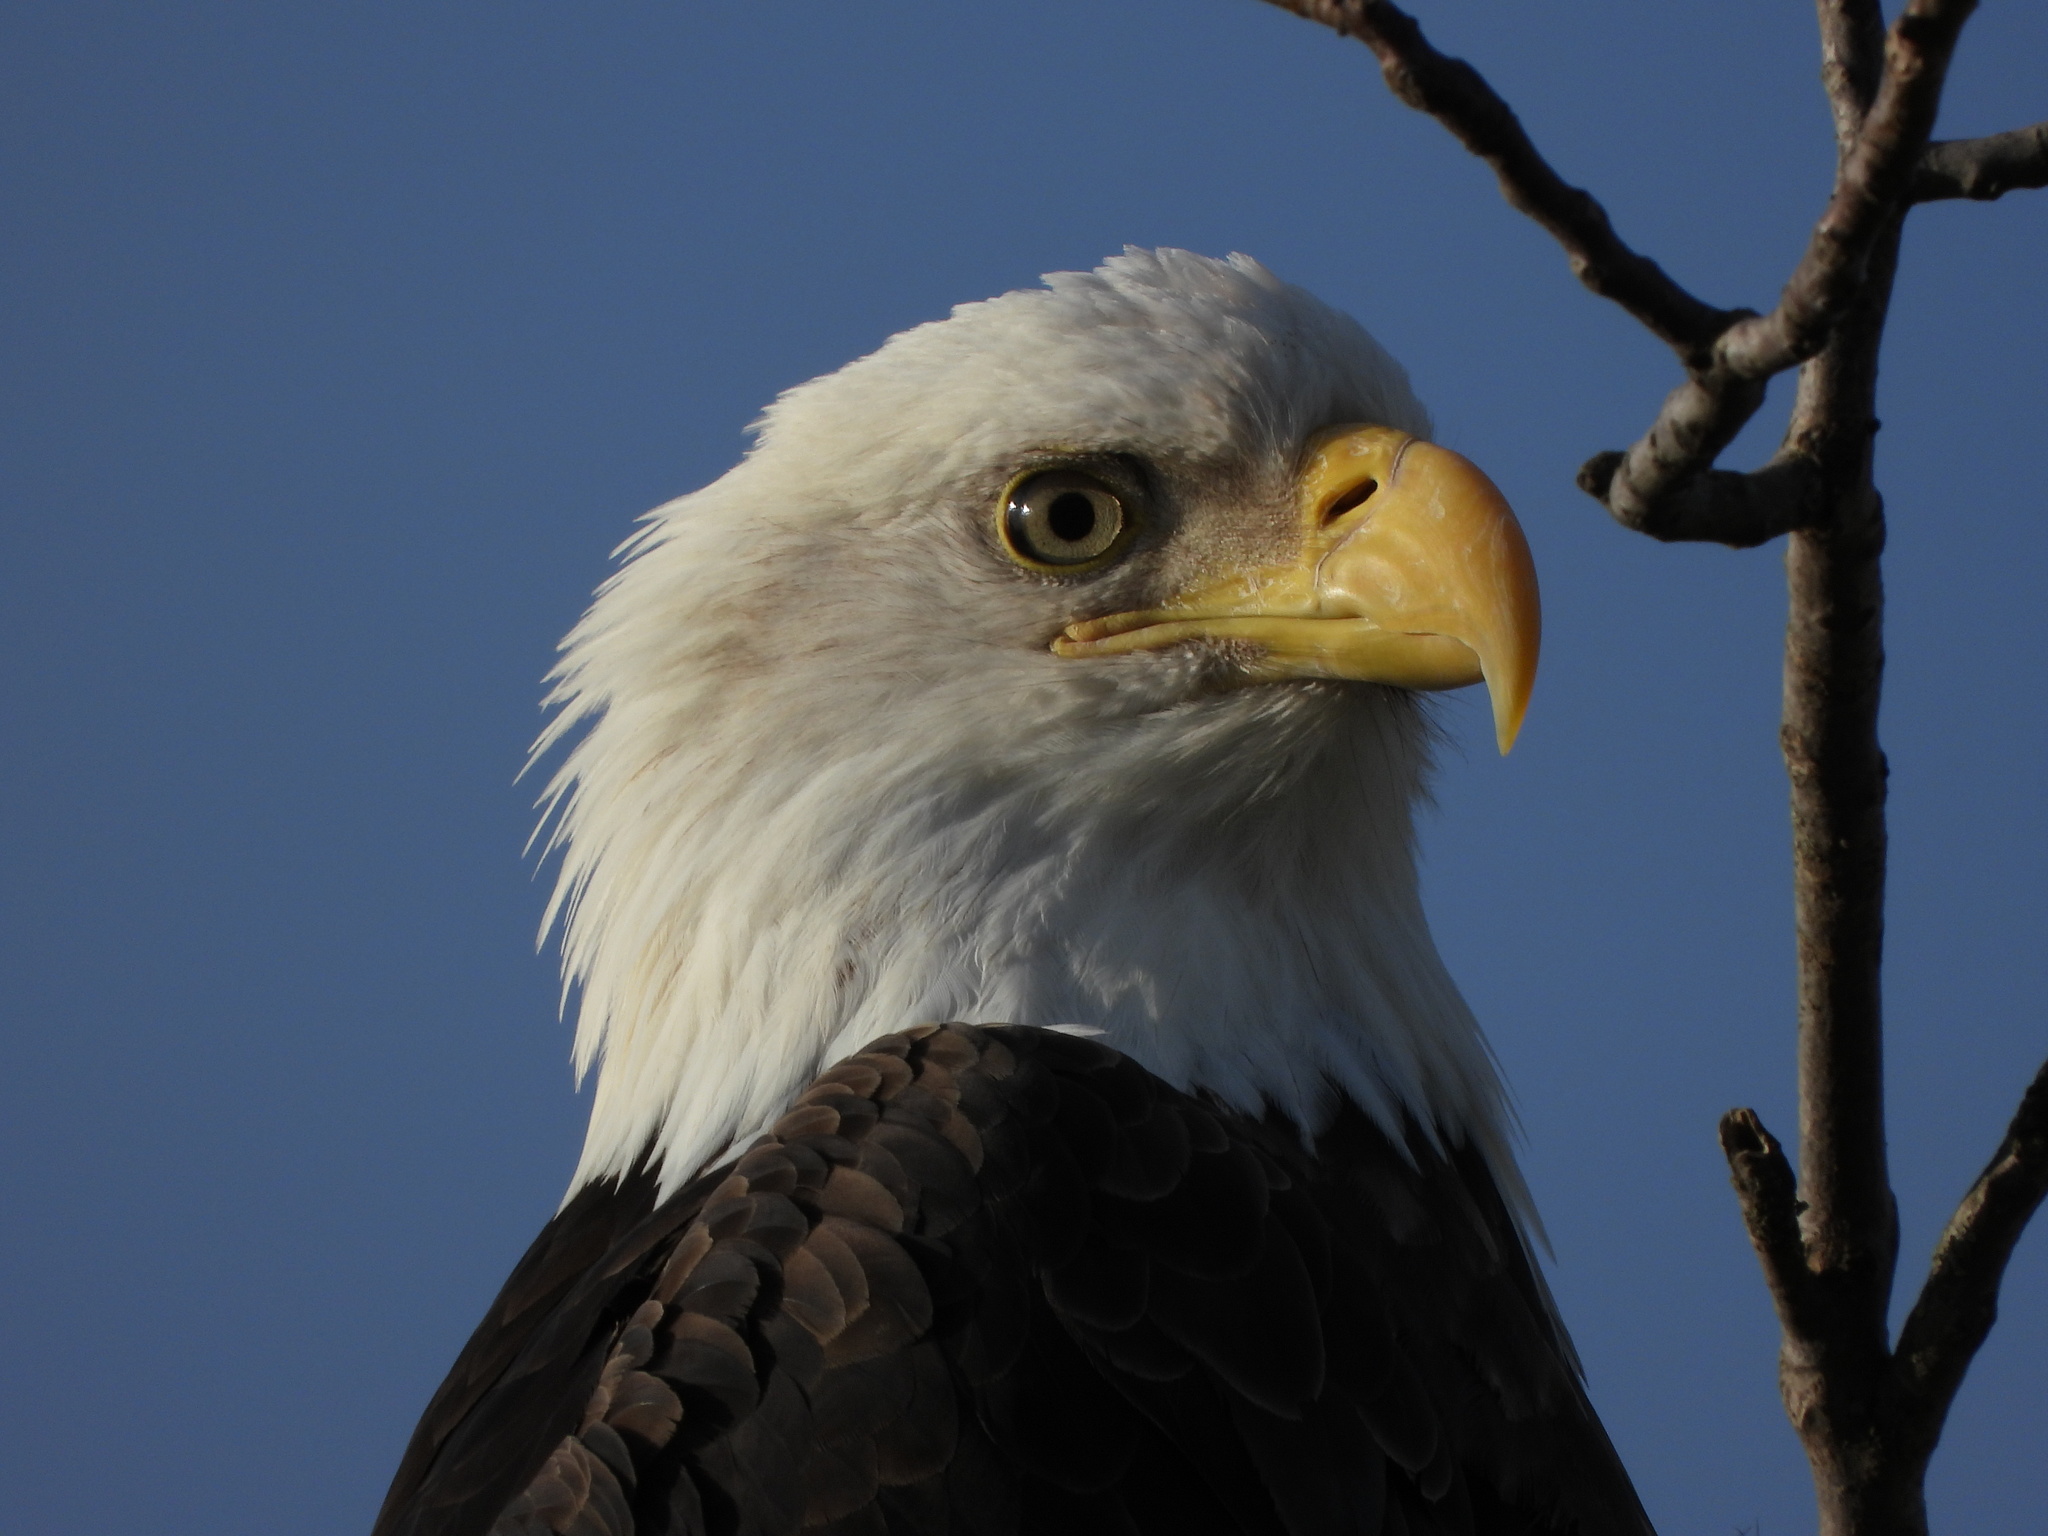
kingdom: Animalia
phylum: Chordata
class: Aves
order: Accipitriformes
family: Accipitridae
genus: Haliaeetus
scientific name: Haliaeetus leucocephalus
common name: Bald eagle
